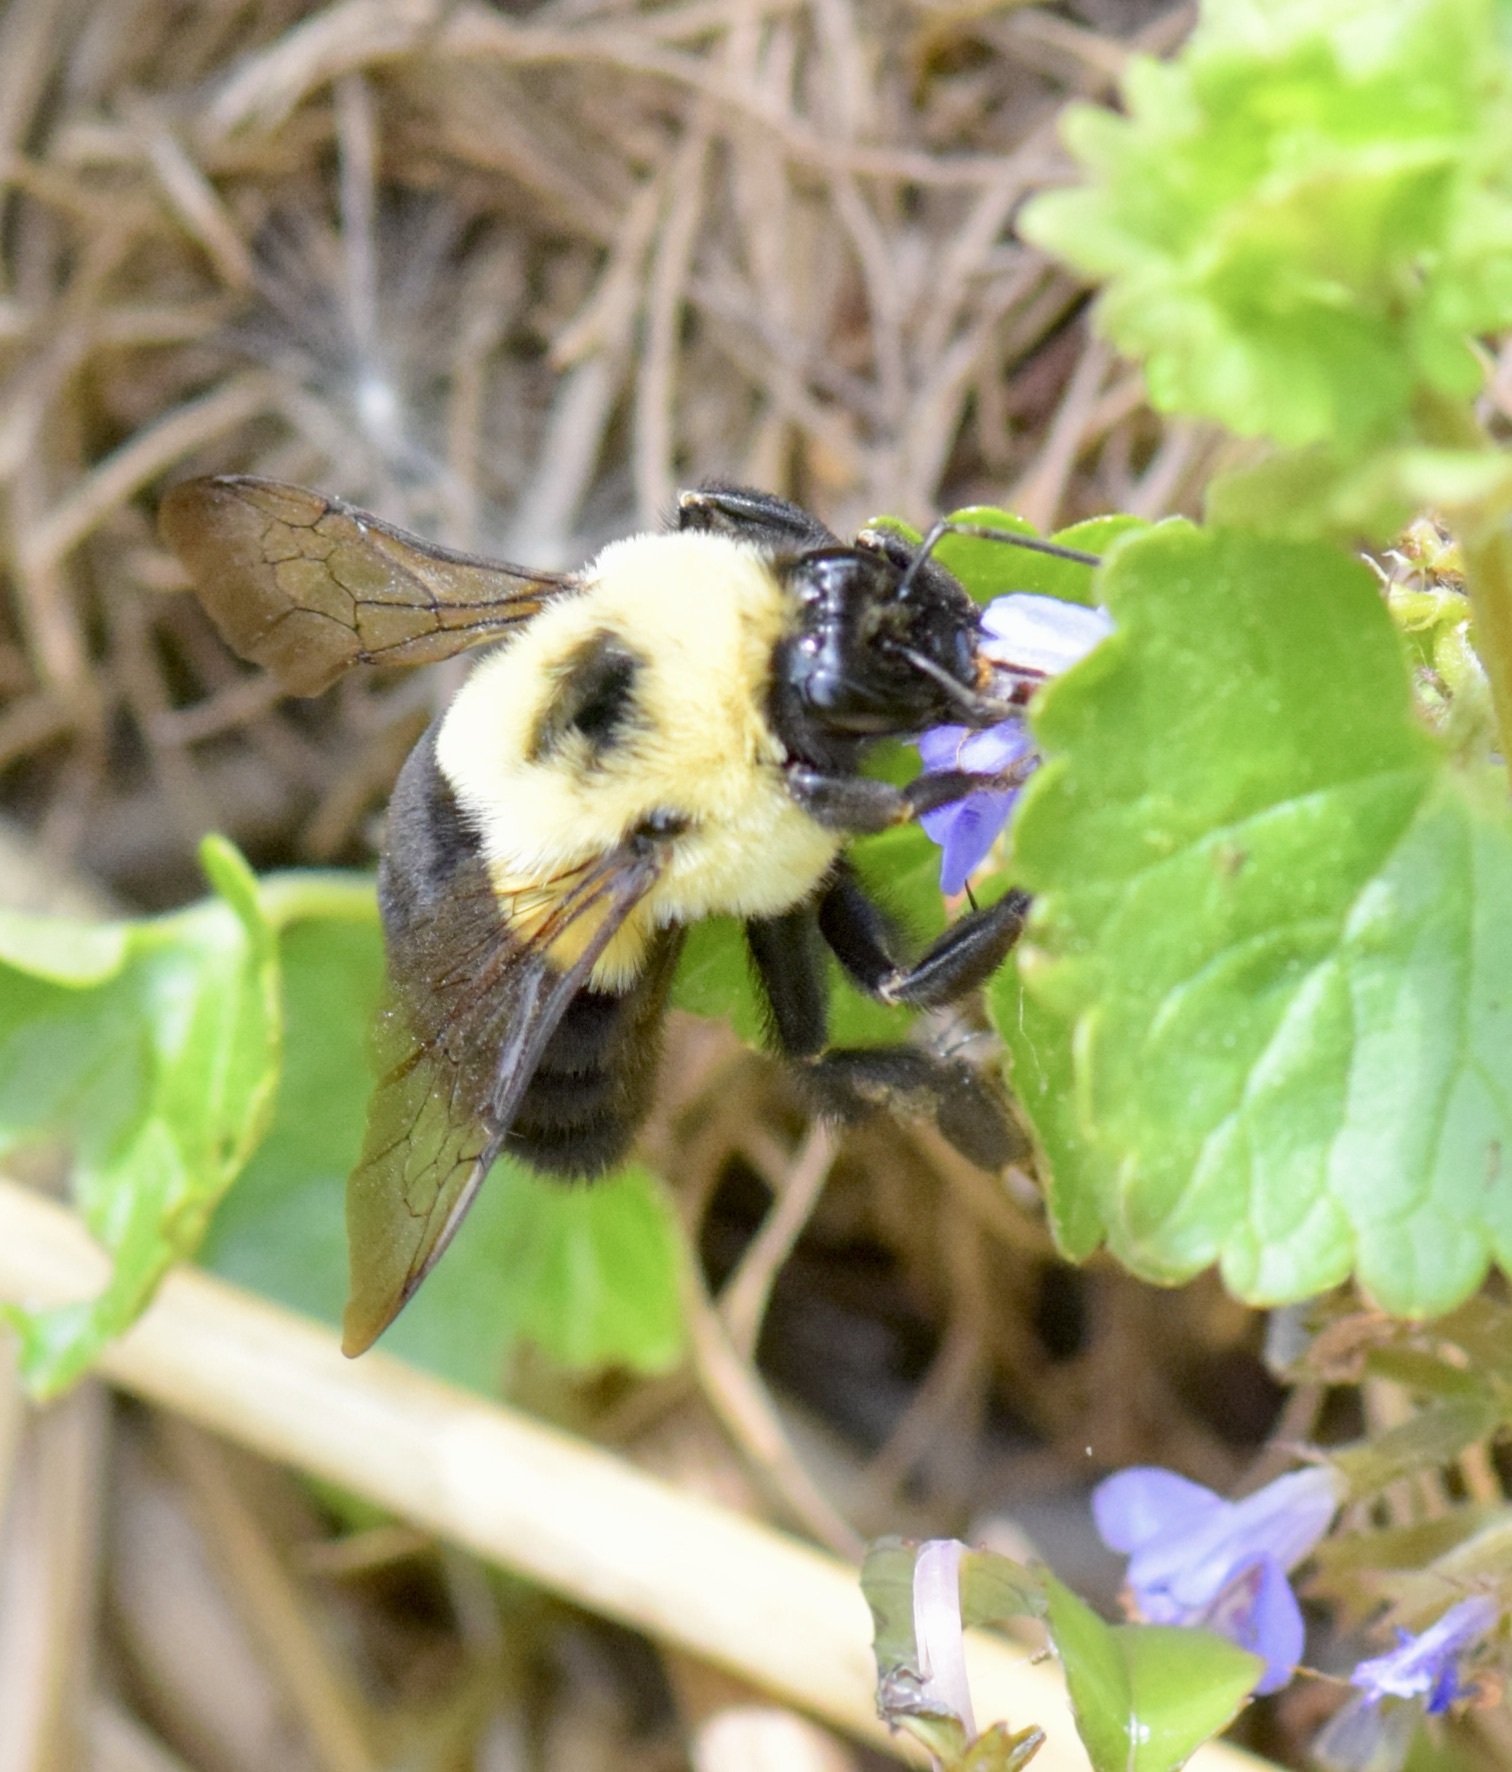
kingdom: Animalia
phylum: Arthropoda
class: Insecta
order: Hymenoptera
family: Apidae
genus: Bombus
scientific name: Bombus impatiens
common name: Common eastern bumble bee
